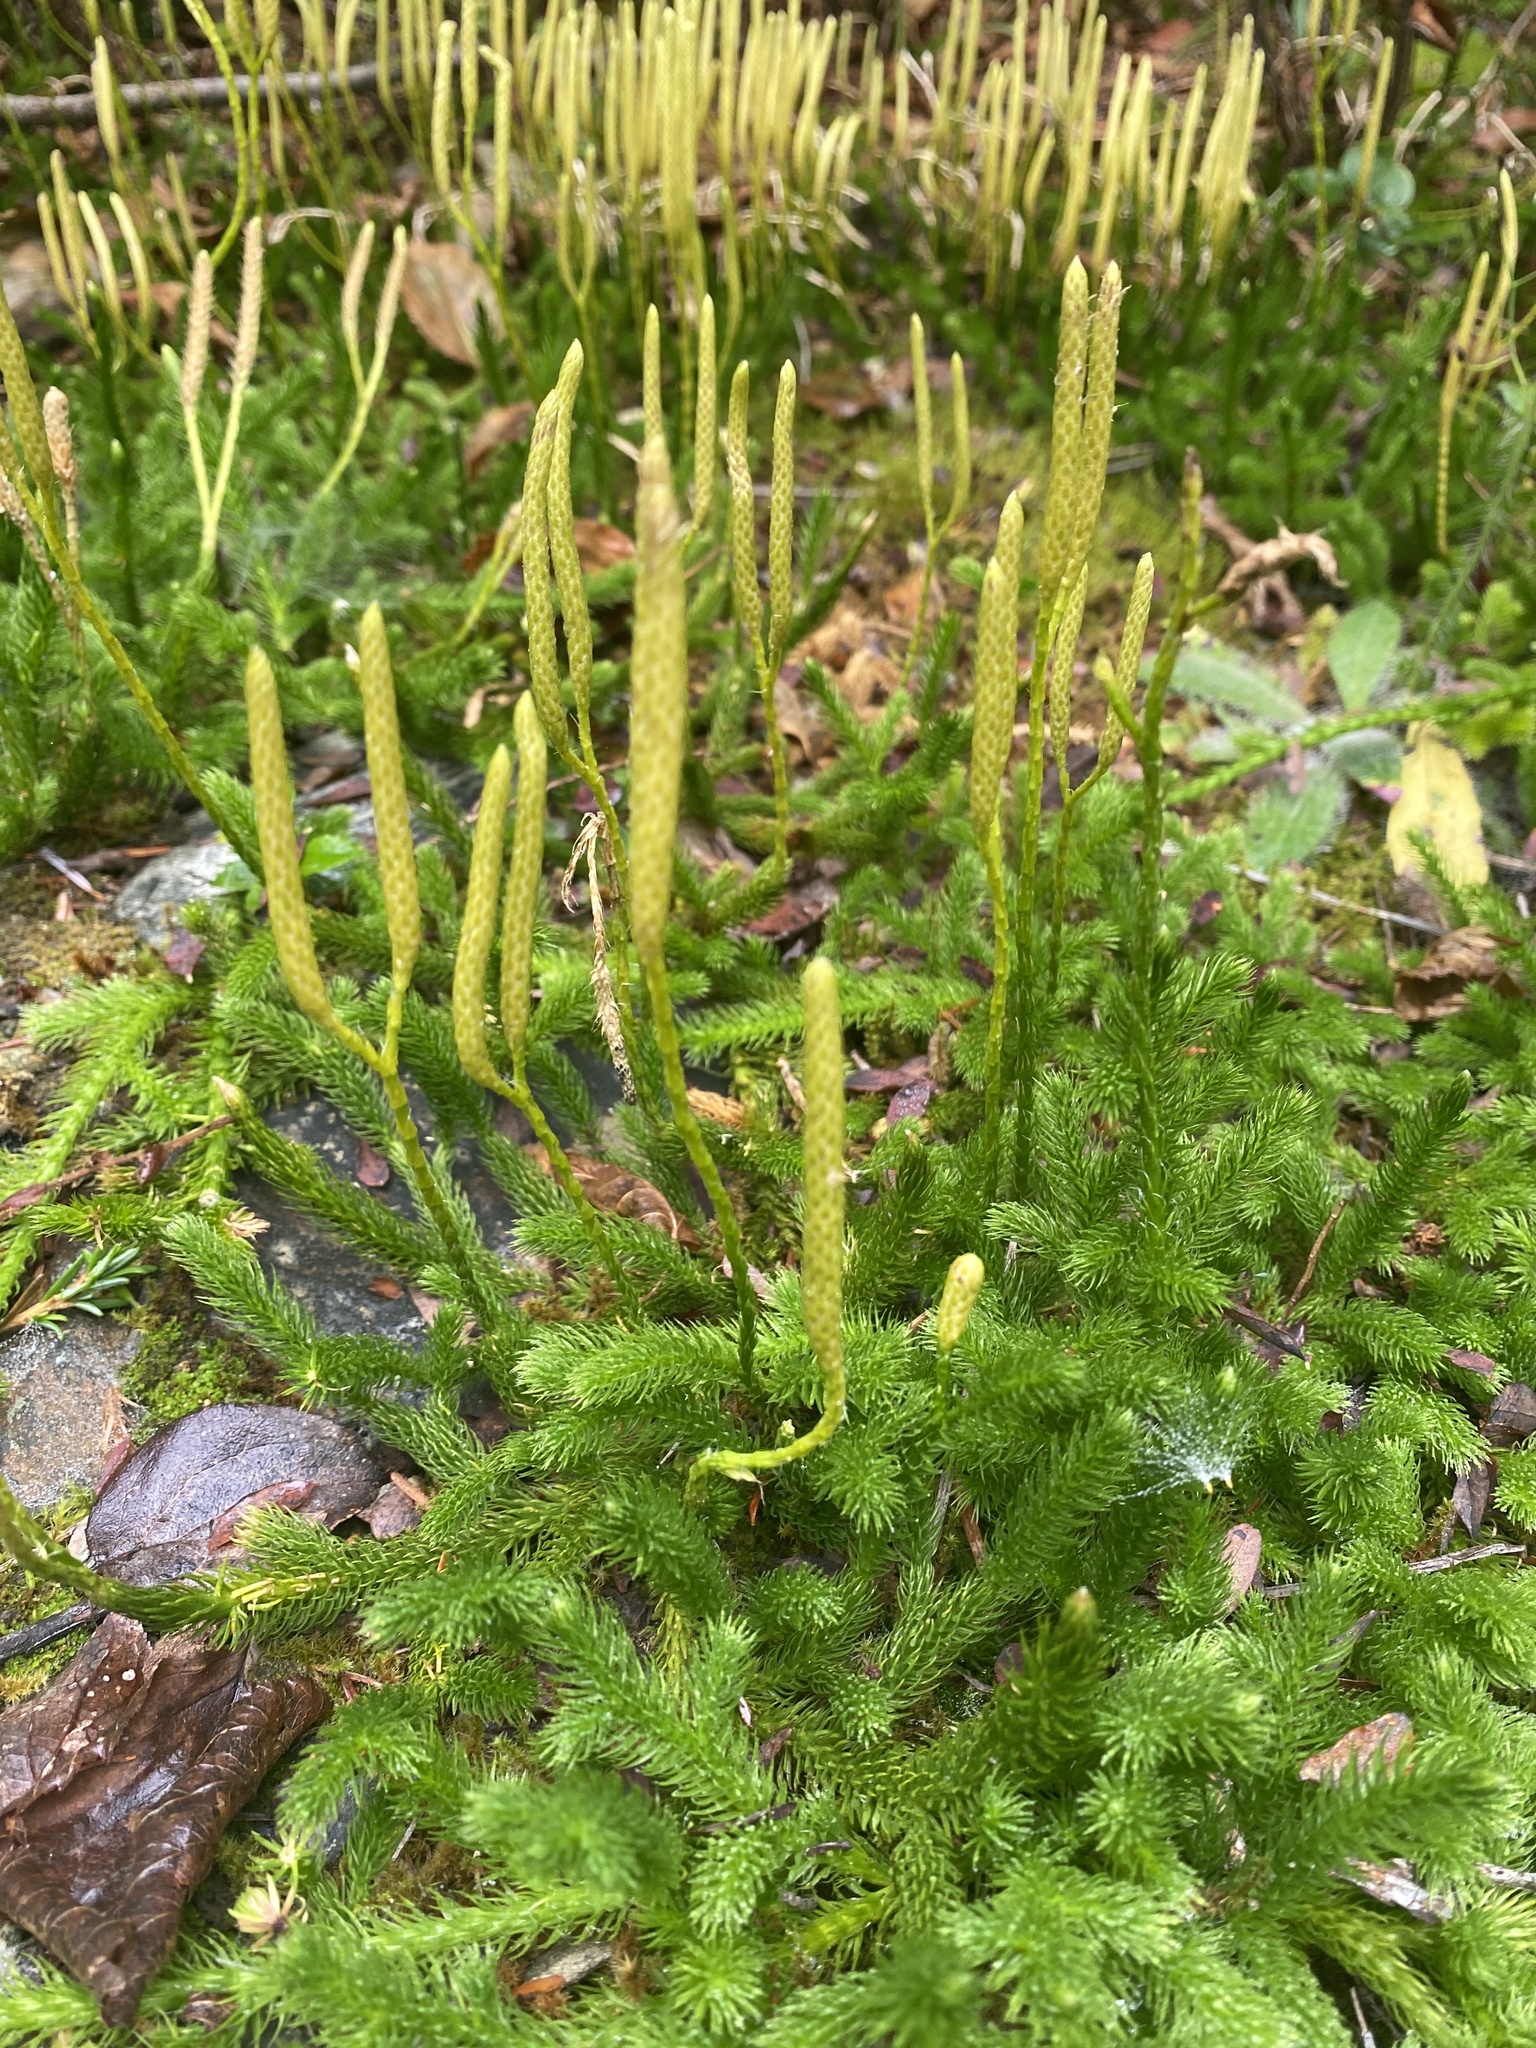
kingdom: Plantae
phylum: Tracheophyta
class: Lycopodiopsida
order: Lycopodiales
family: Lycopodiaceae
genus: Lycopodium
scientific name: Lycopodium clavatum
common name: Stag's-horn clubmoss
